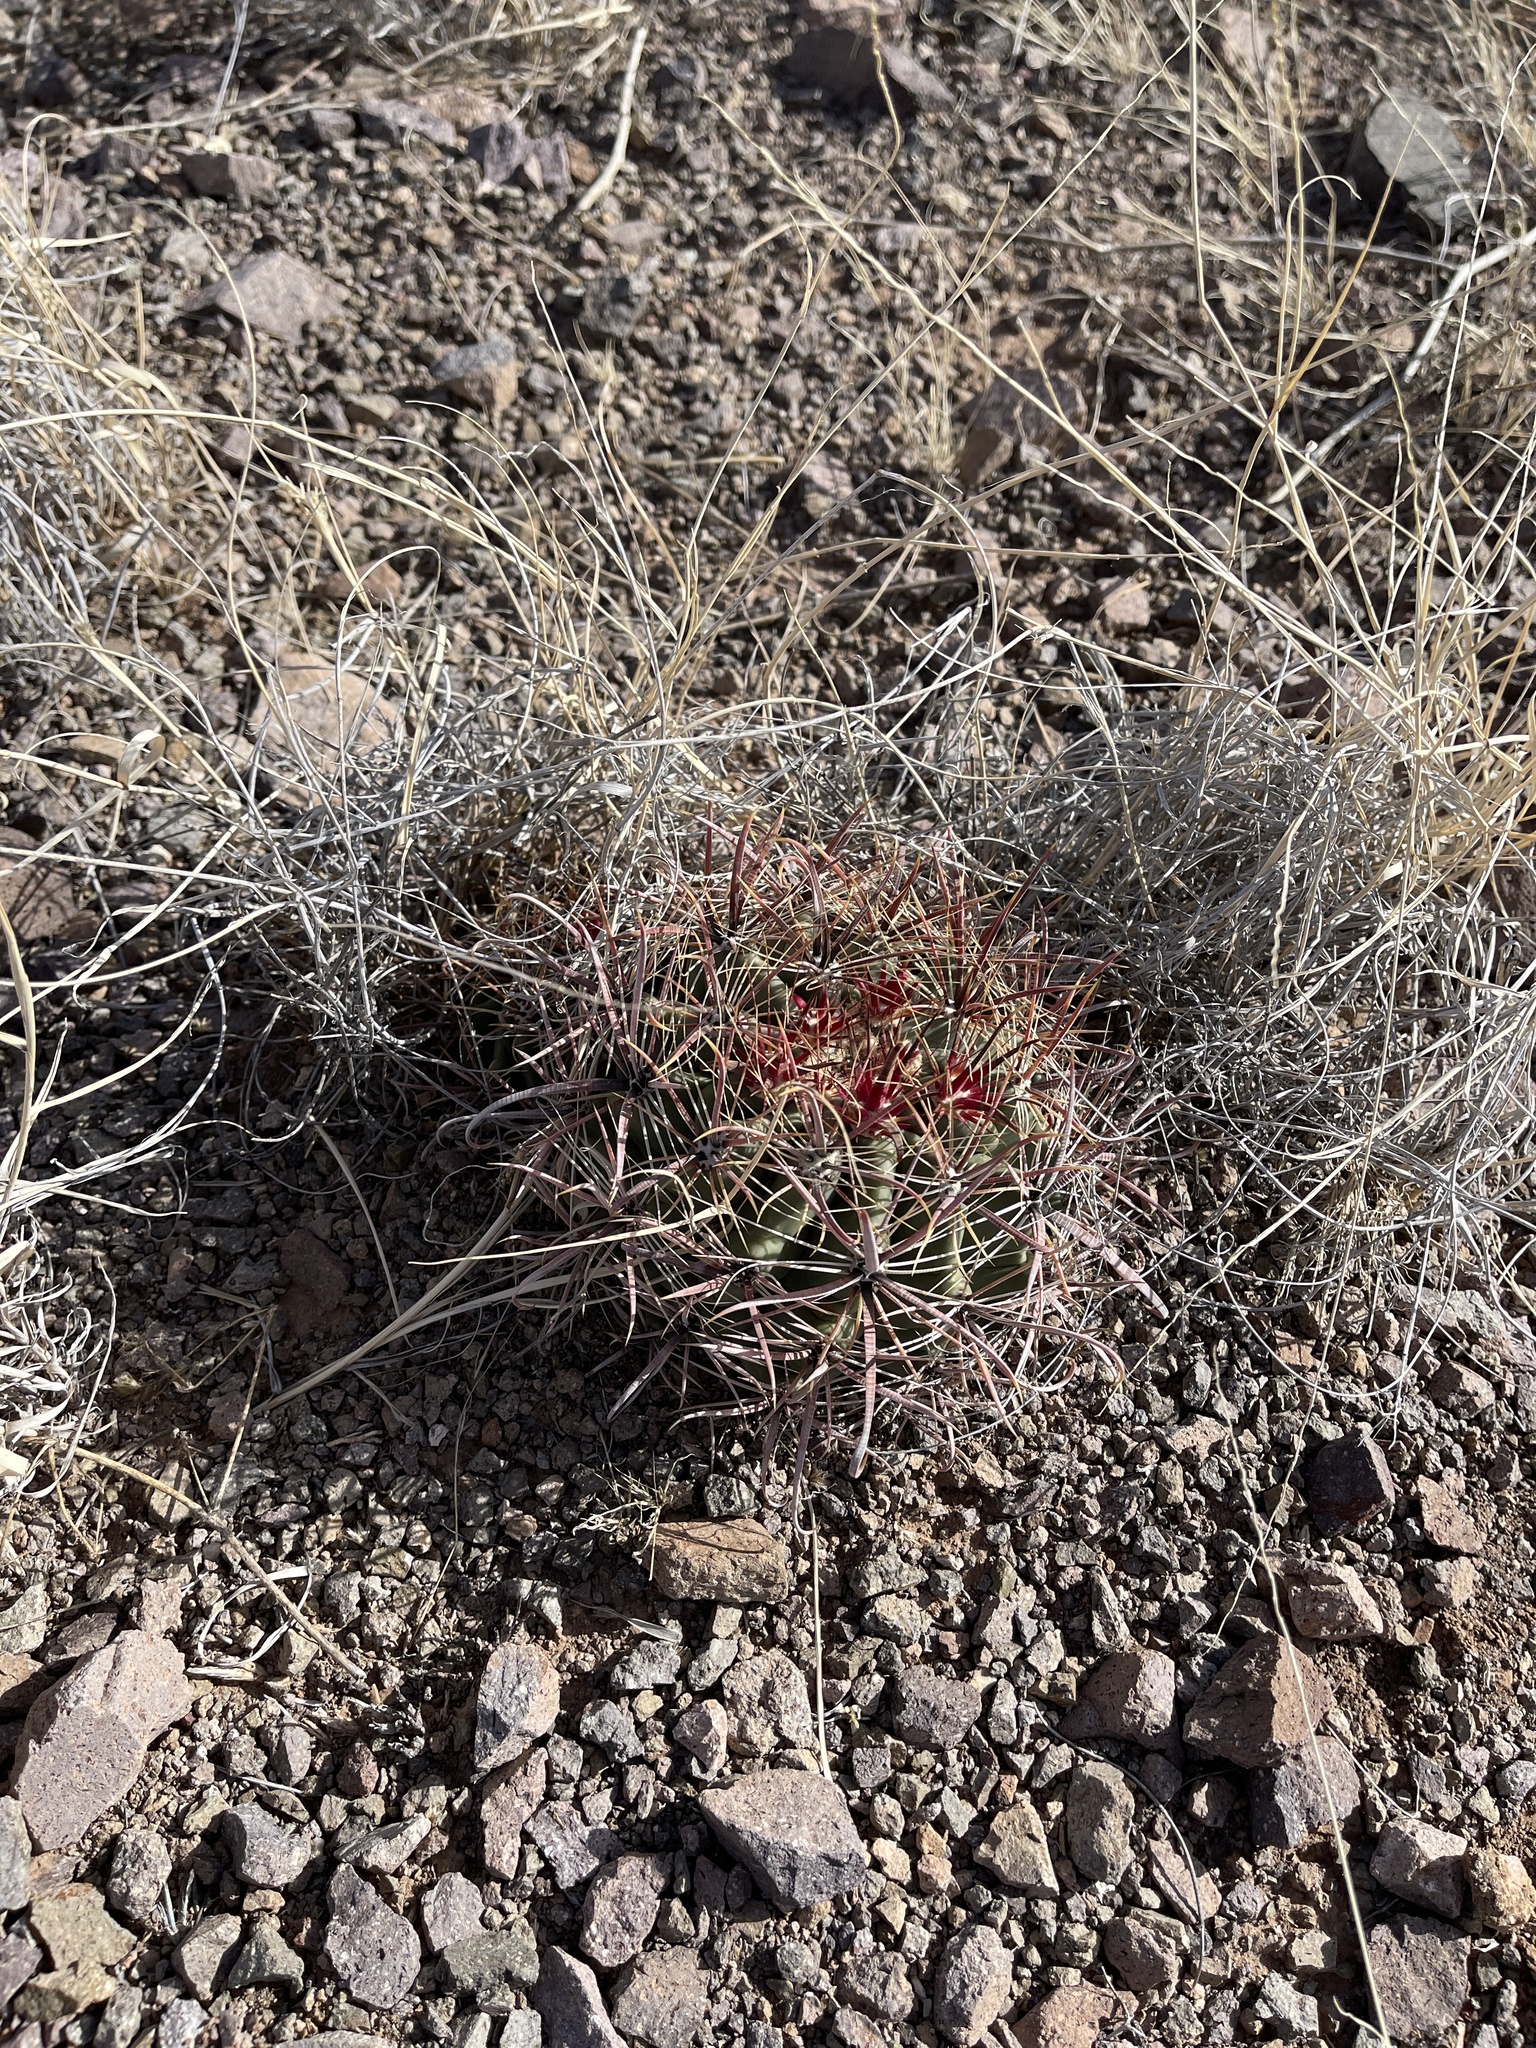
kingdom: Plantae
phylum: Tracheophyta
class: Magnoliopsida
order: Caryophyllales
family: Cactaceae
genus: Ferocactus
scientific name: Ferocactus wislizeni
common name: Candy barrel cactus
